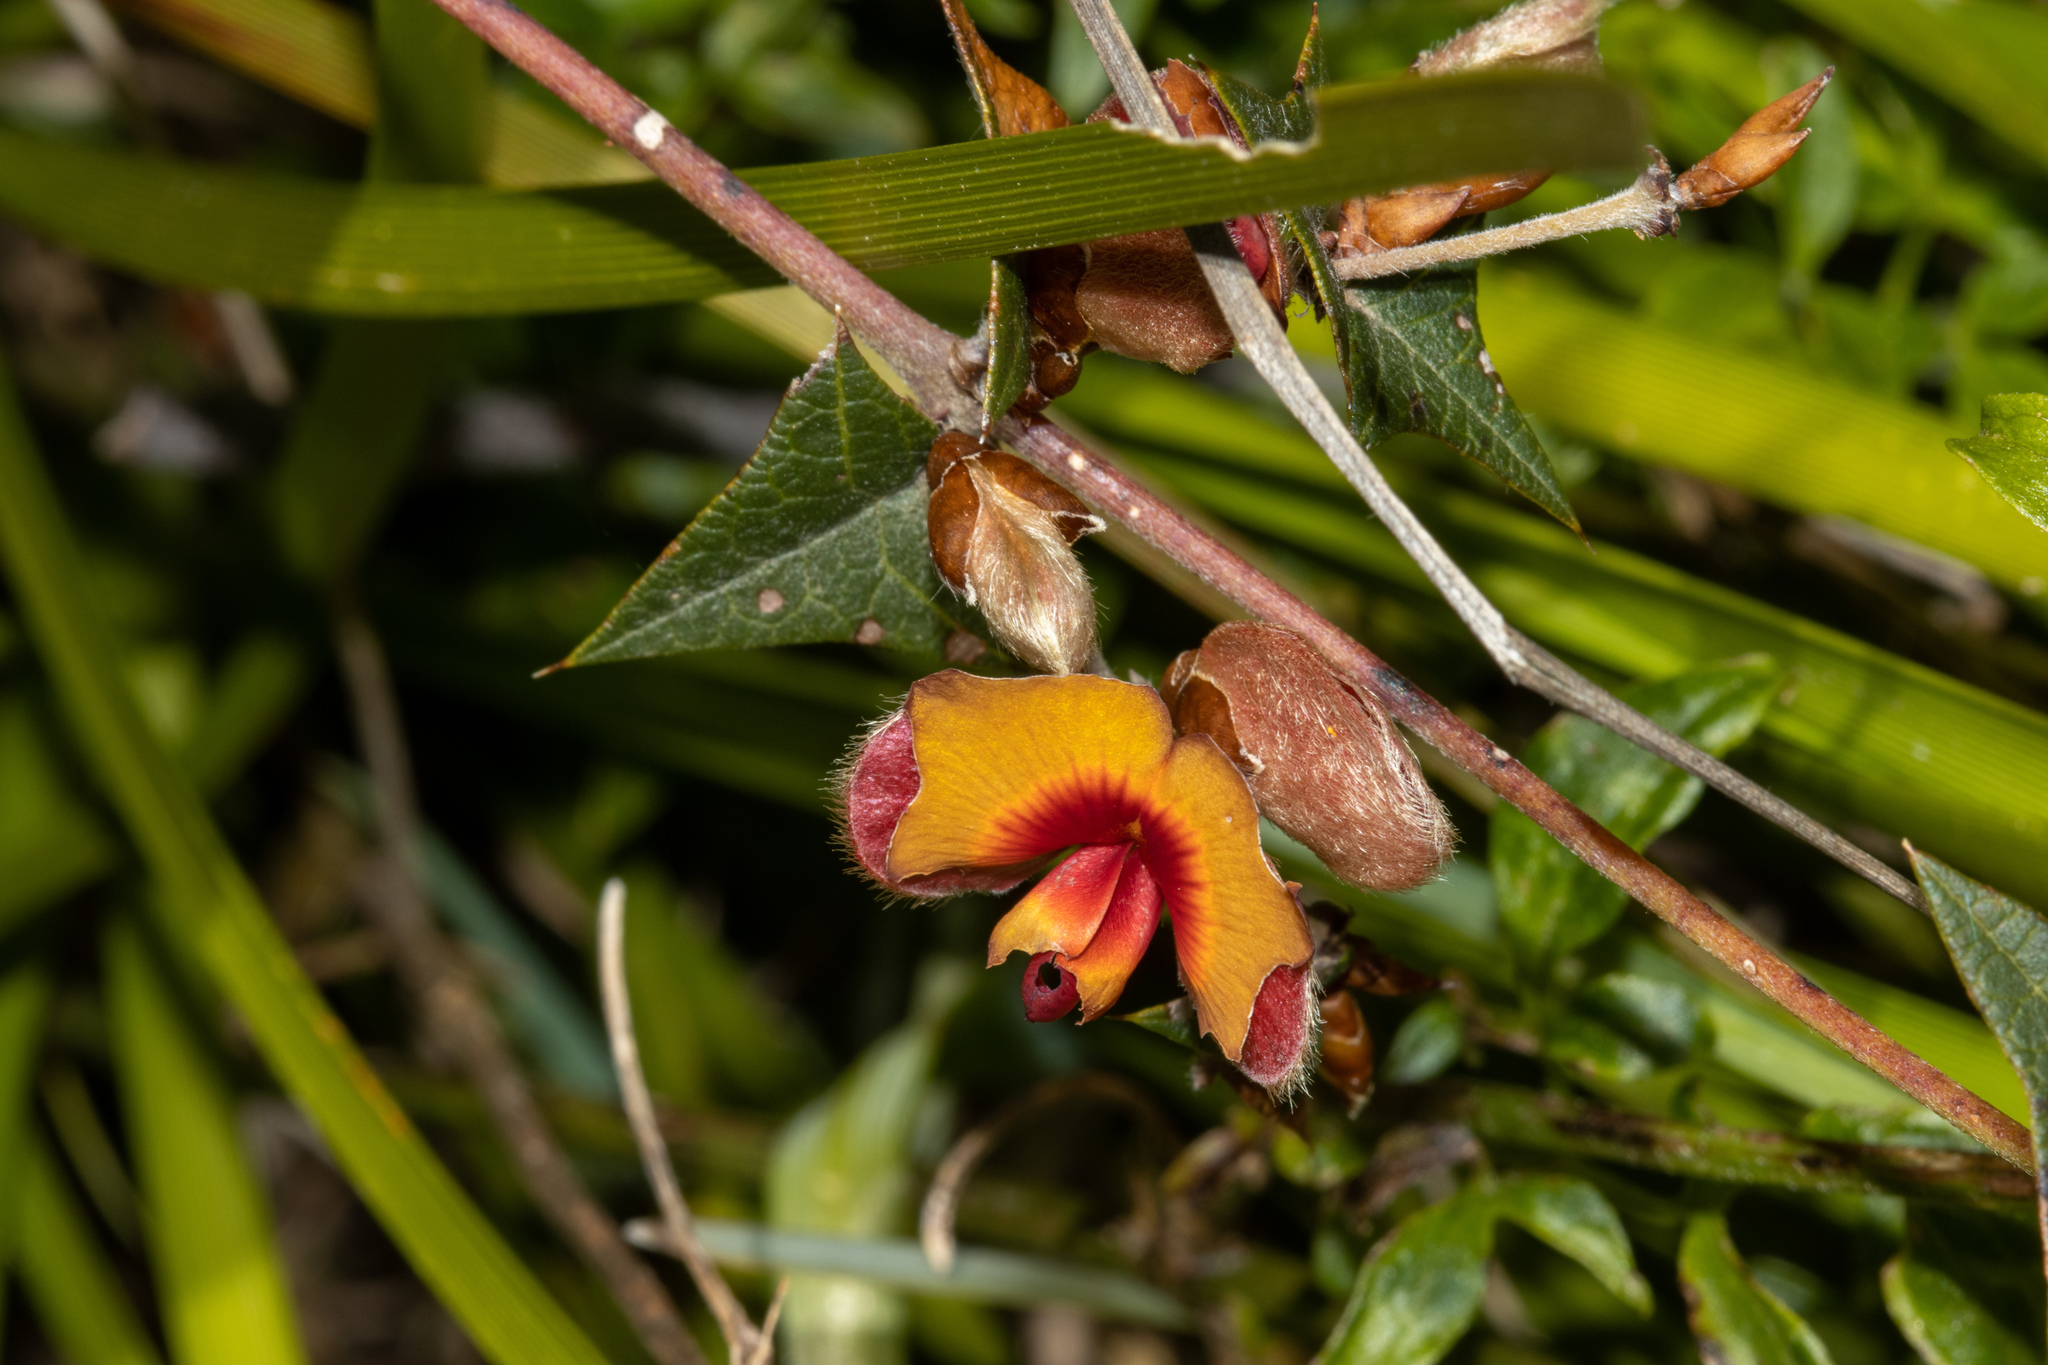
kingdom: Plantae
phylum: Tracheophyta
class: Magnoliopsida
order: Fabales
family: Fabaceae
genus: Platylobium
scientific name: Platylobium obtusangulum
